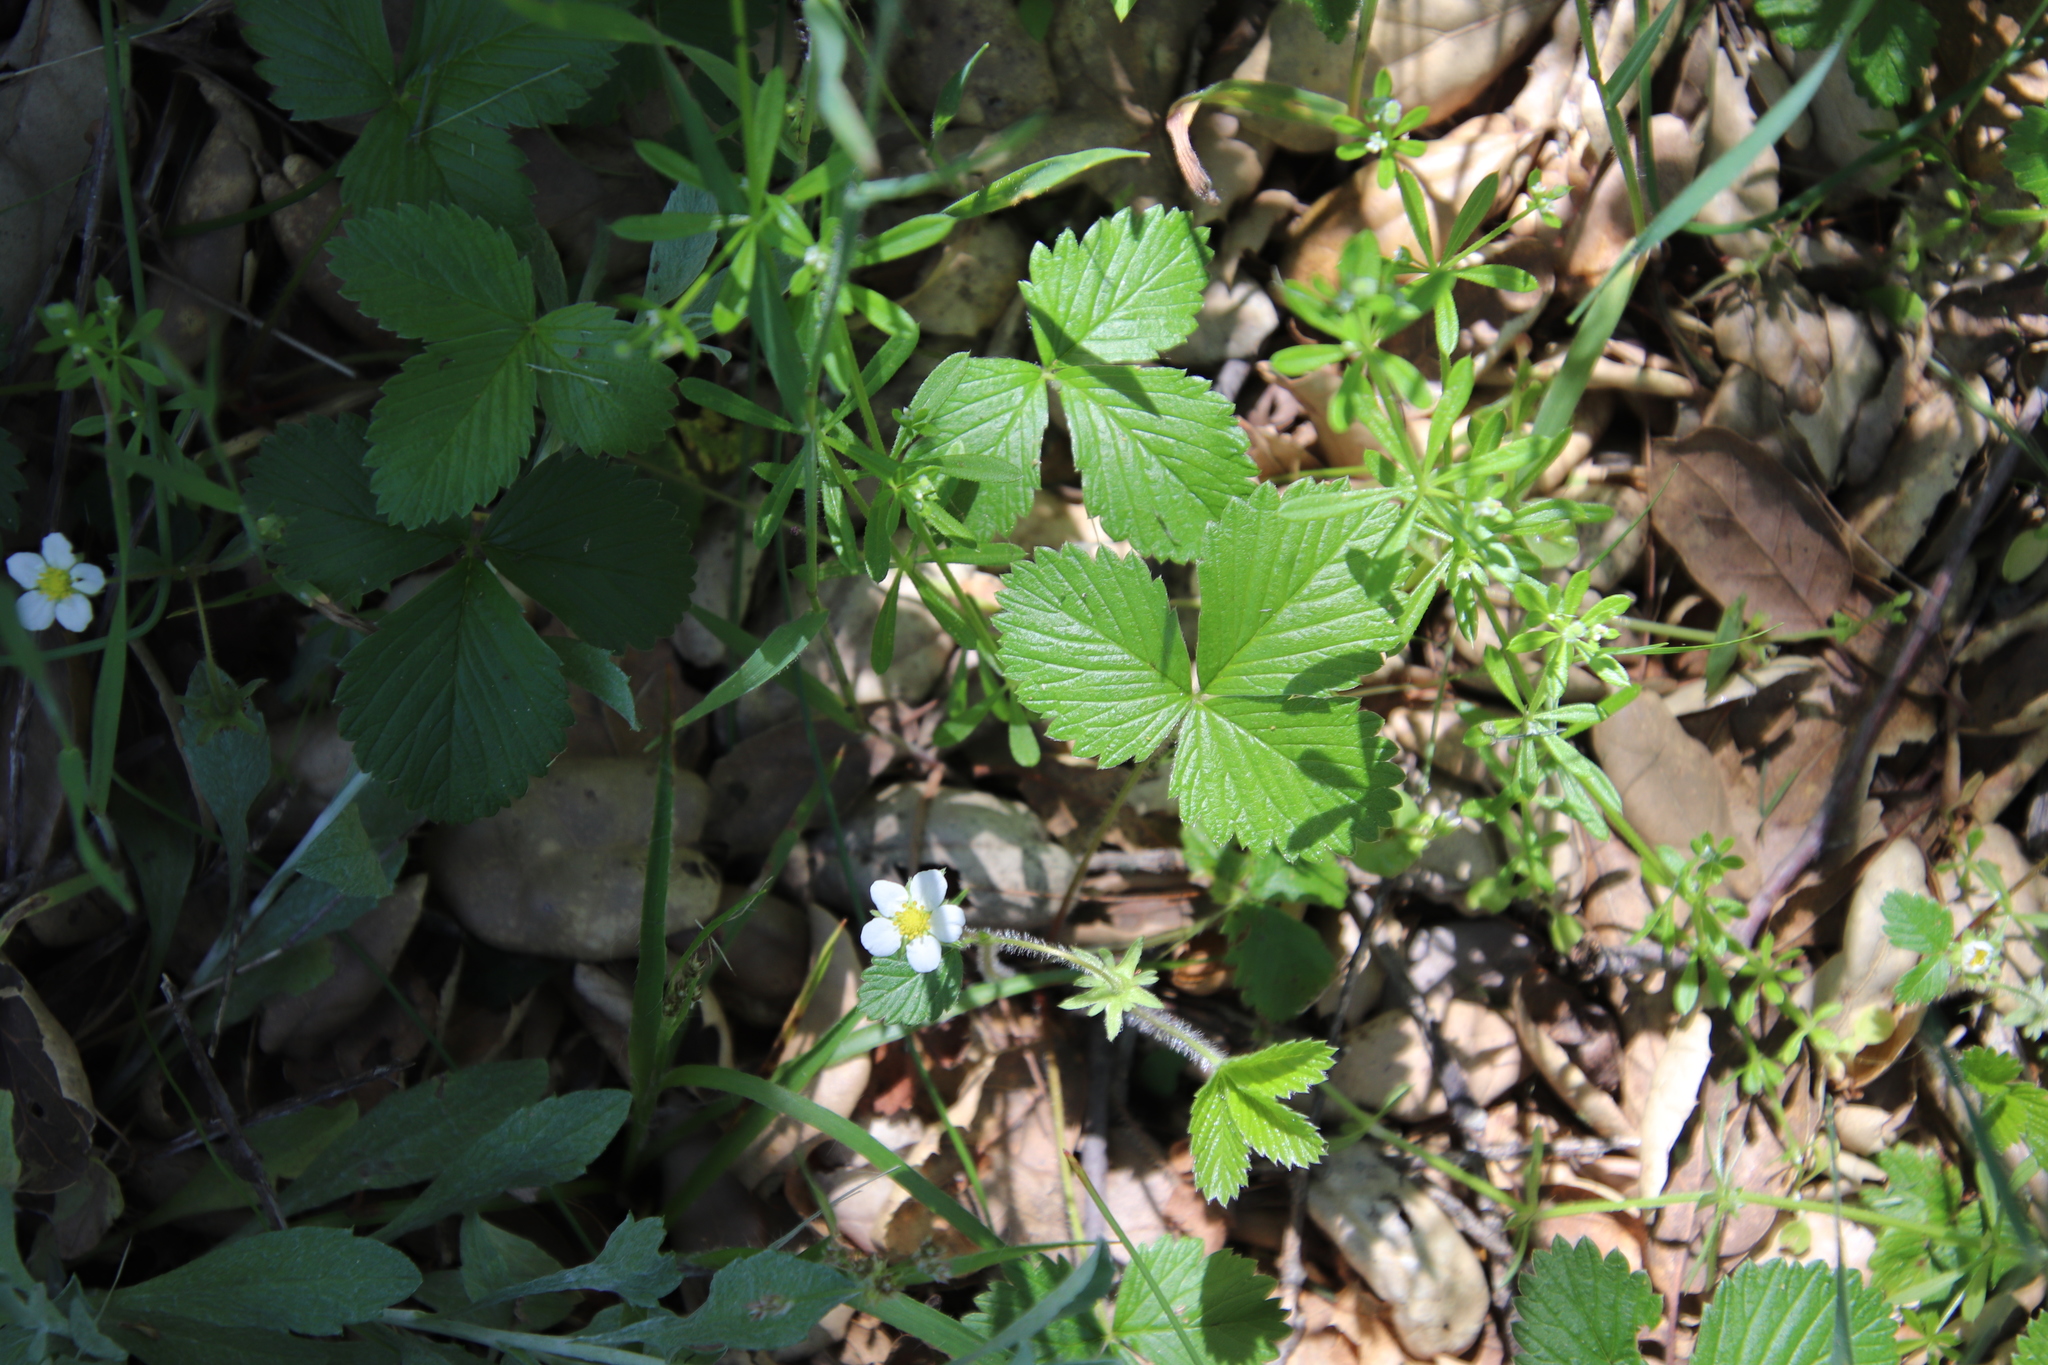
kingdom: Plantae
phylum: Tracheophyta
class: Magnoliopsida
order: Rosales
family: Rosaceae
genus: Fragaria
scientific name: Fragaria vesca
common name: Wild strawberry
